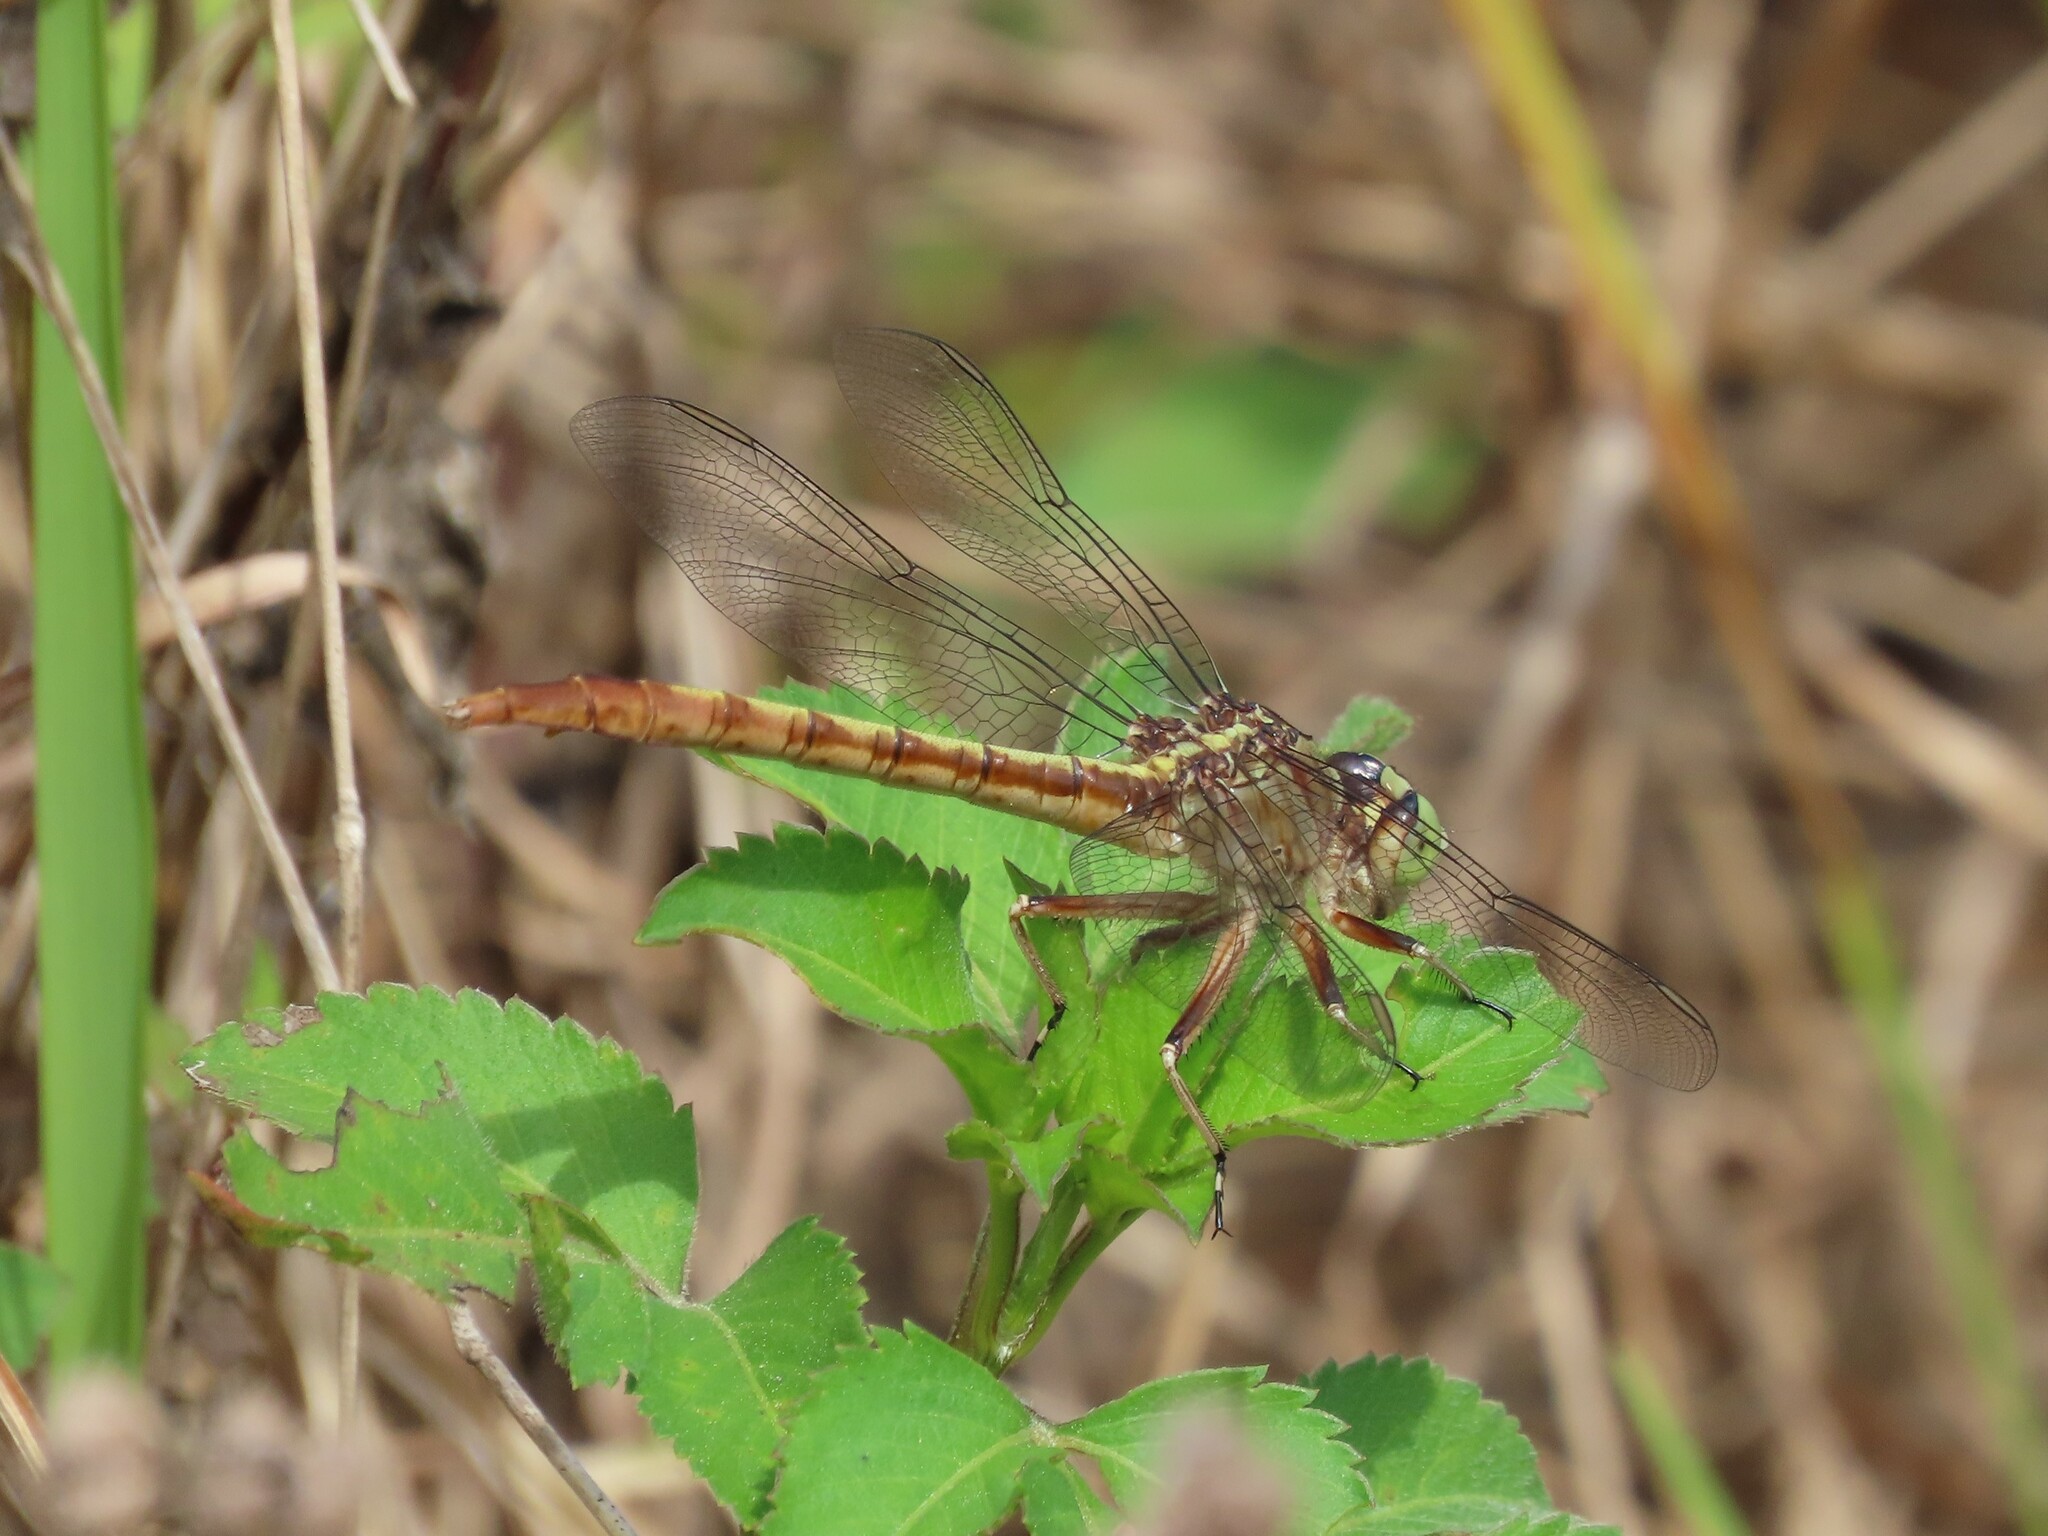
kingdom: Animalia
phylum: Arthropoda
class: Insecta
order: Odonata
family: Gomphidae
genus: Arigomphus
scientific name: Arigomphus pallidus
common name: Gray-green clubtail
